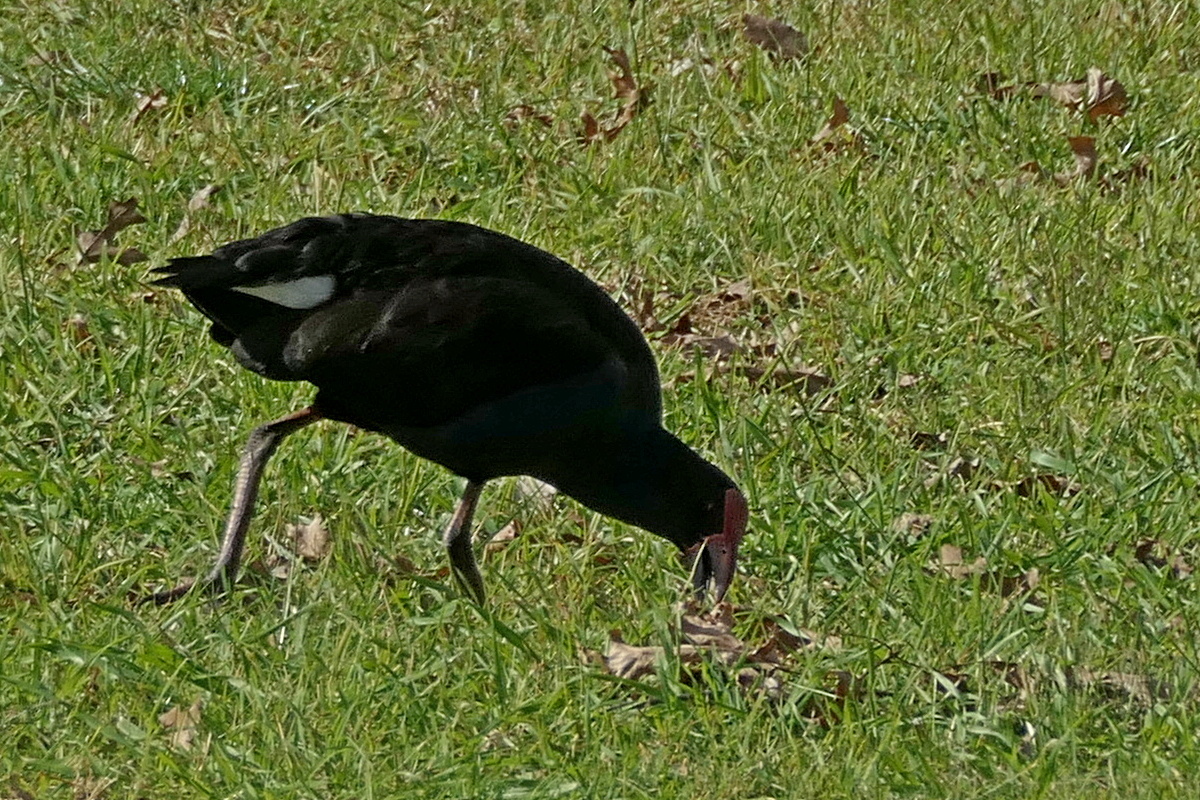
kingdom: Animalia
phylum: Chordata
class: Aves
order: Gruiformes
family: Rallidae
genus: Porphyrio
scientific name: Porphyrio melanotus
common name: Australasian swamphen
